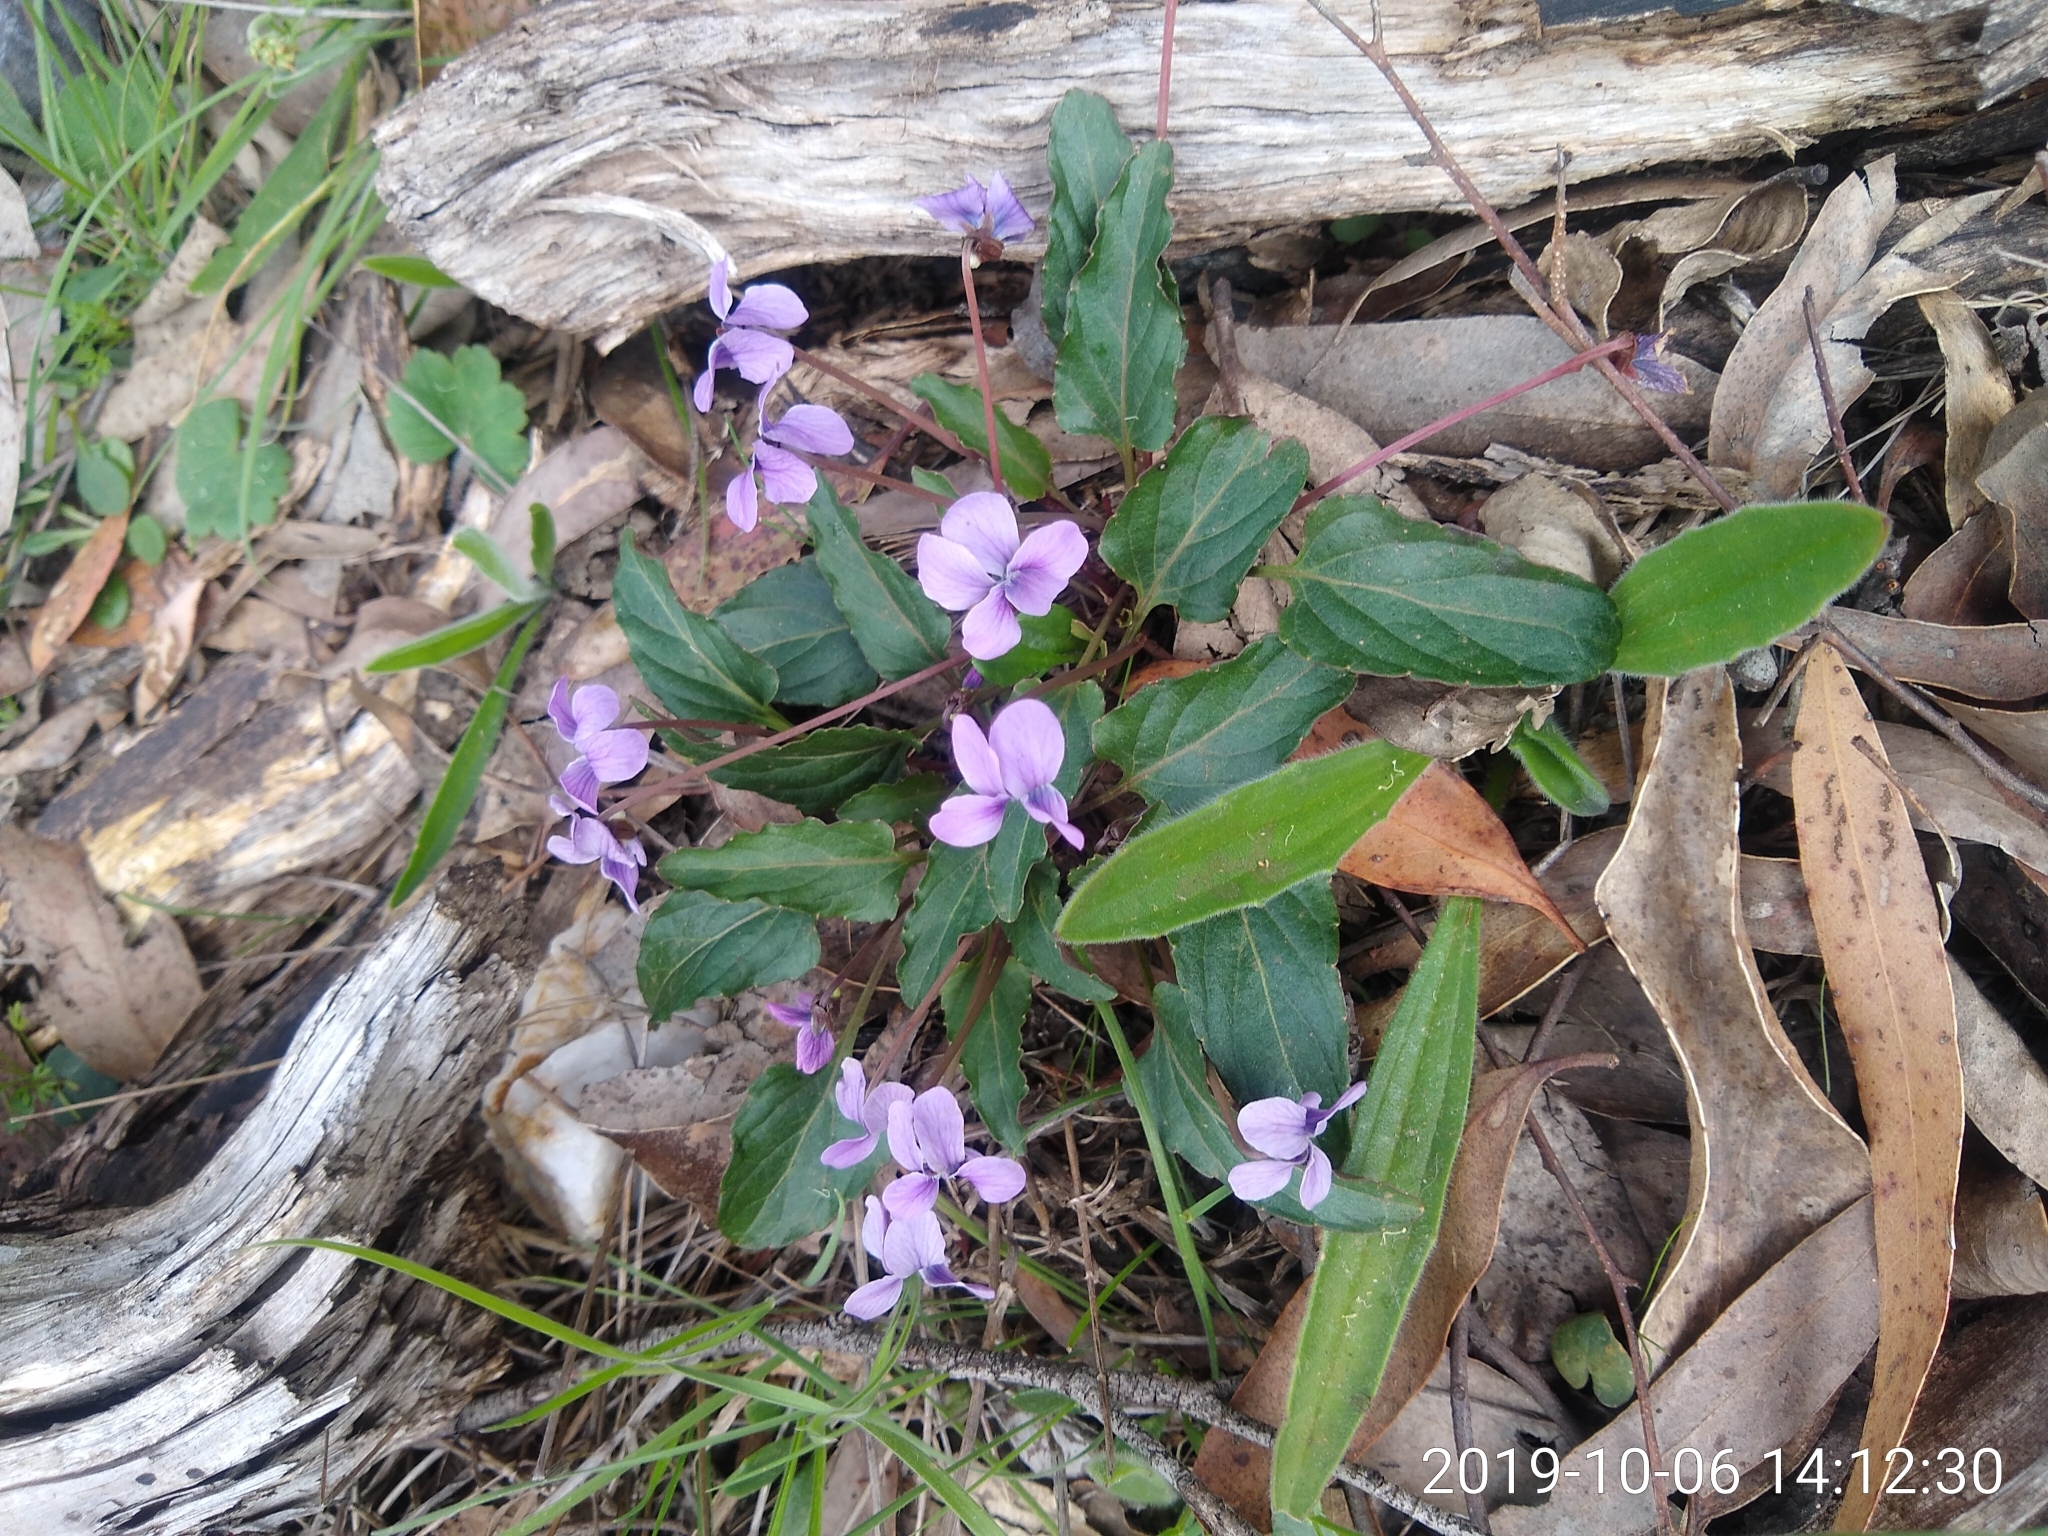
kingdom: Plantae
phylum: Tracheophyta
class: Magnoliopsida
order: Malpighiales
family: Violaceae
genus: Viola
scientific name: Viola betonicifolia
